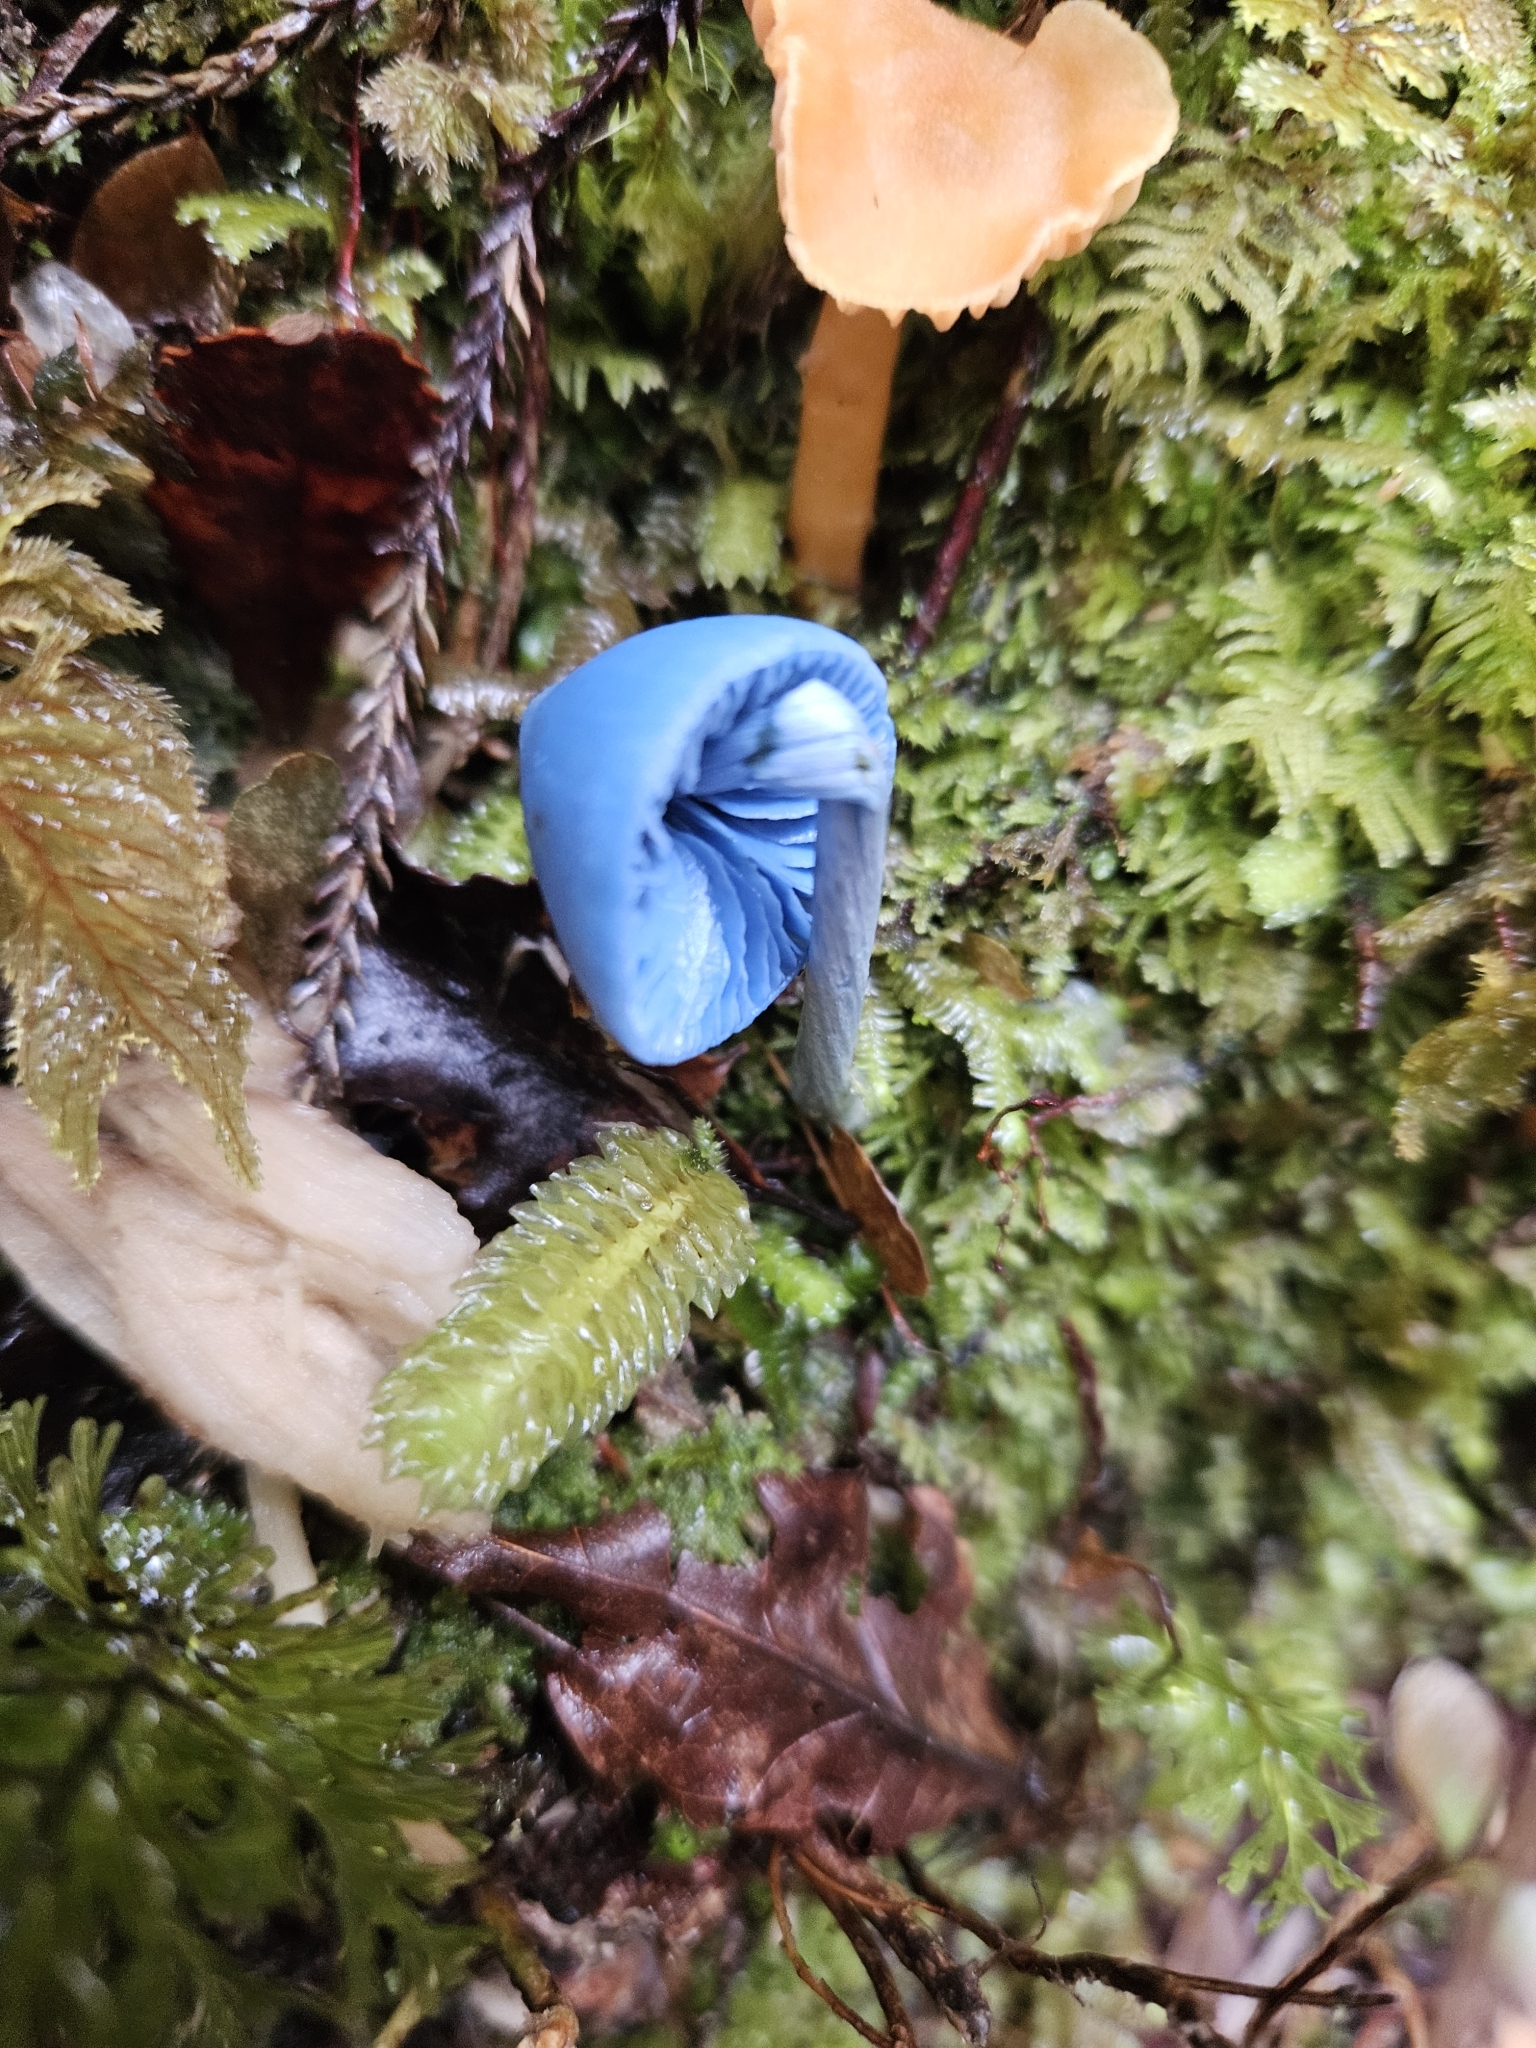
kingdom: Fungi
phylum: Basidiomycota
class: Agaricomycetes
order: Agaricales
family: Entolomataceae
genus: Entoloma
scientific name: Entoloma hochstetteri
